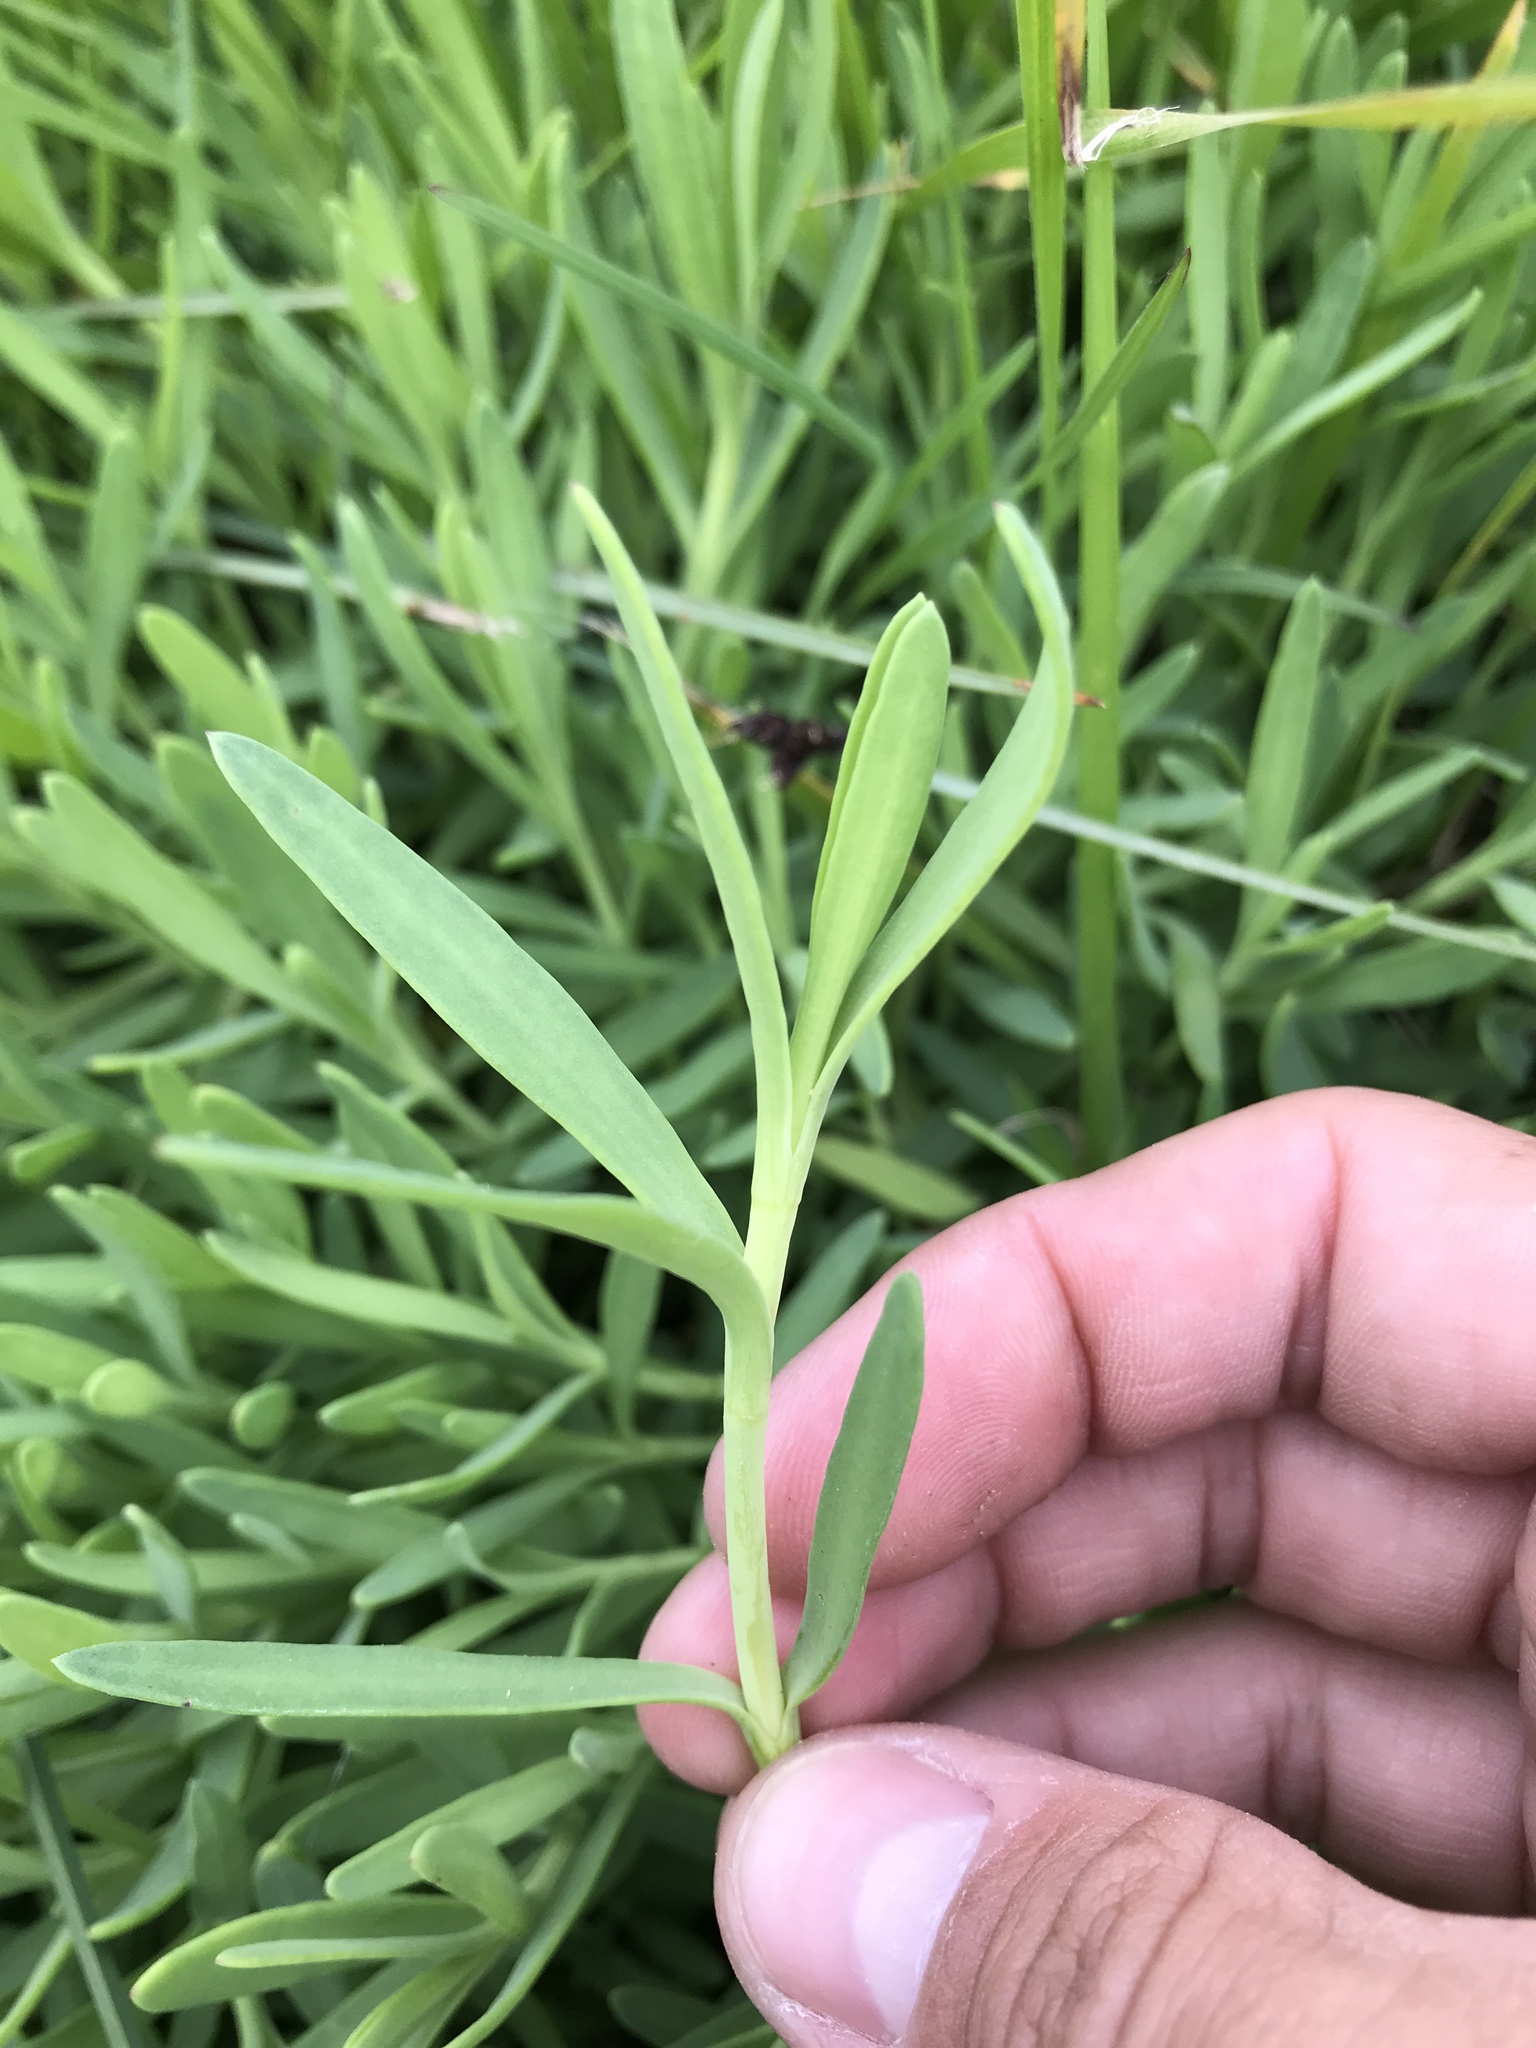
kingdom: Plantae
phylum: Tracheophyta
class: Magnoliopsida
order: Asterales
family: Asteraceae
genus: Jaumea
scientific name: Jaumea carnosa
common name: Fleshy jaumea
